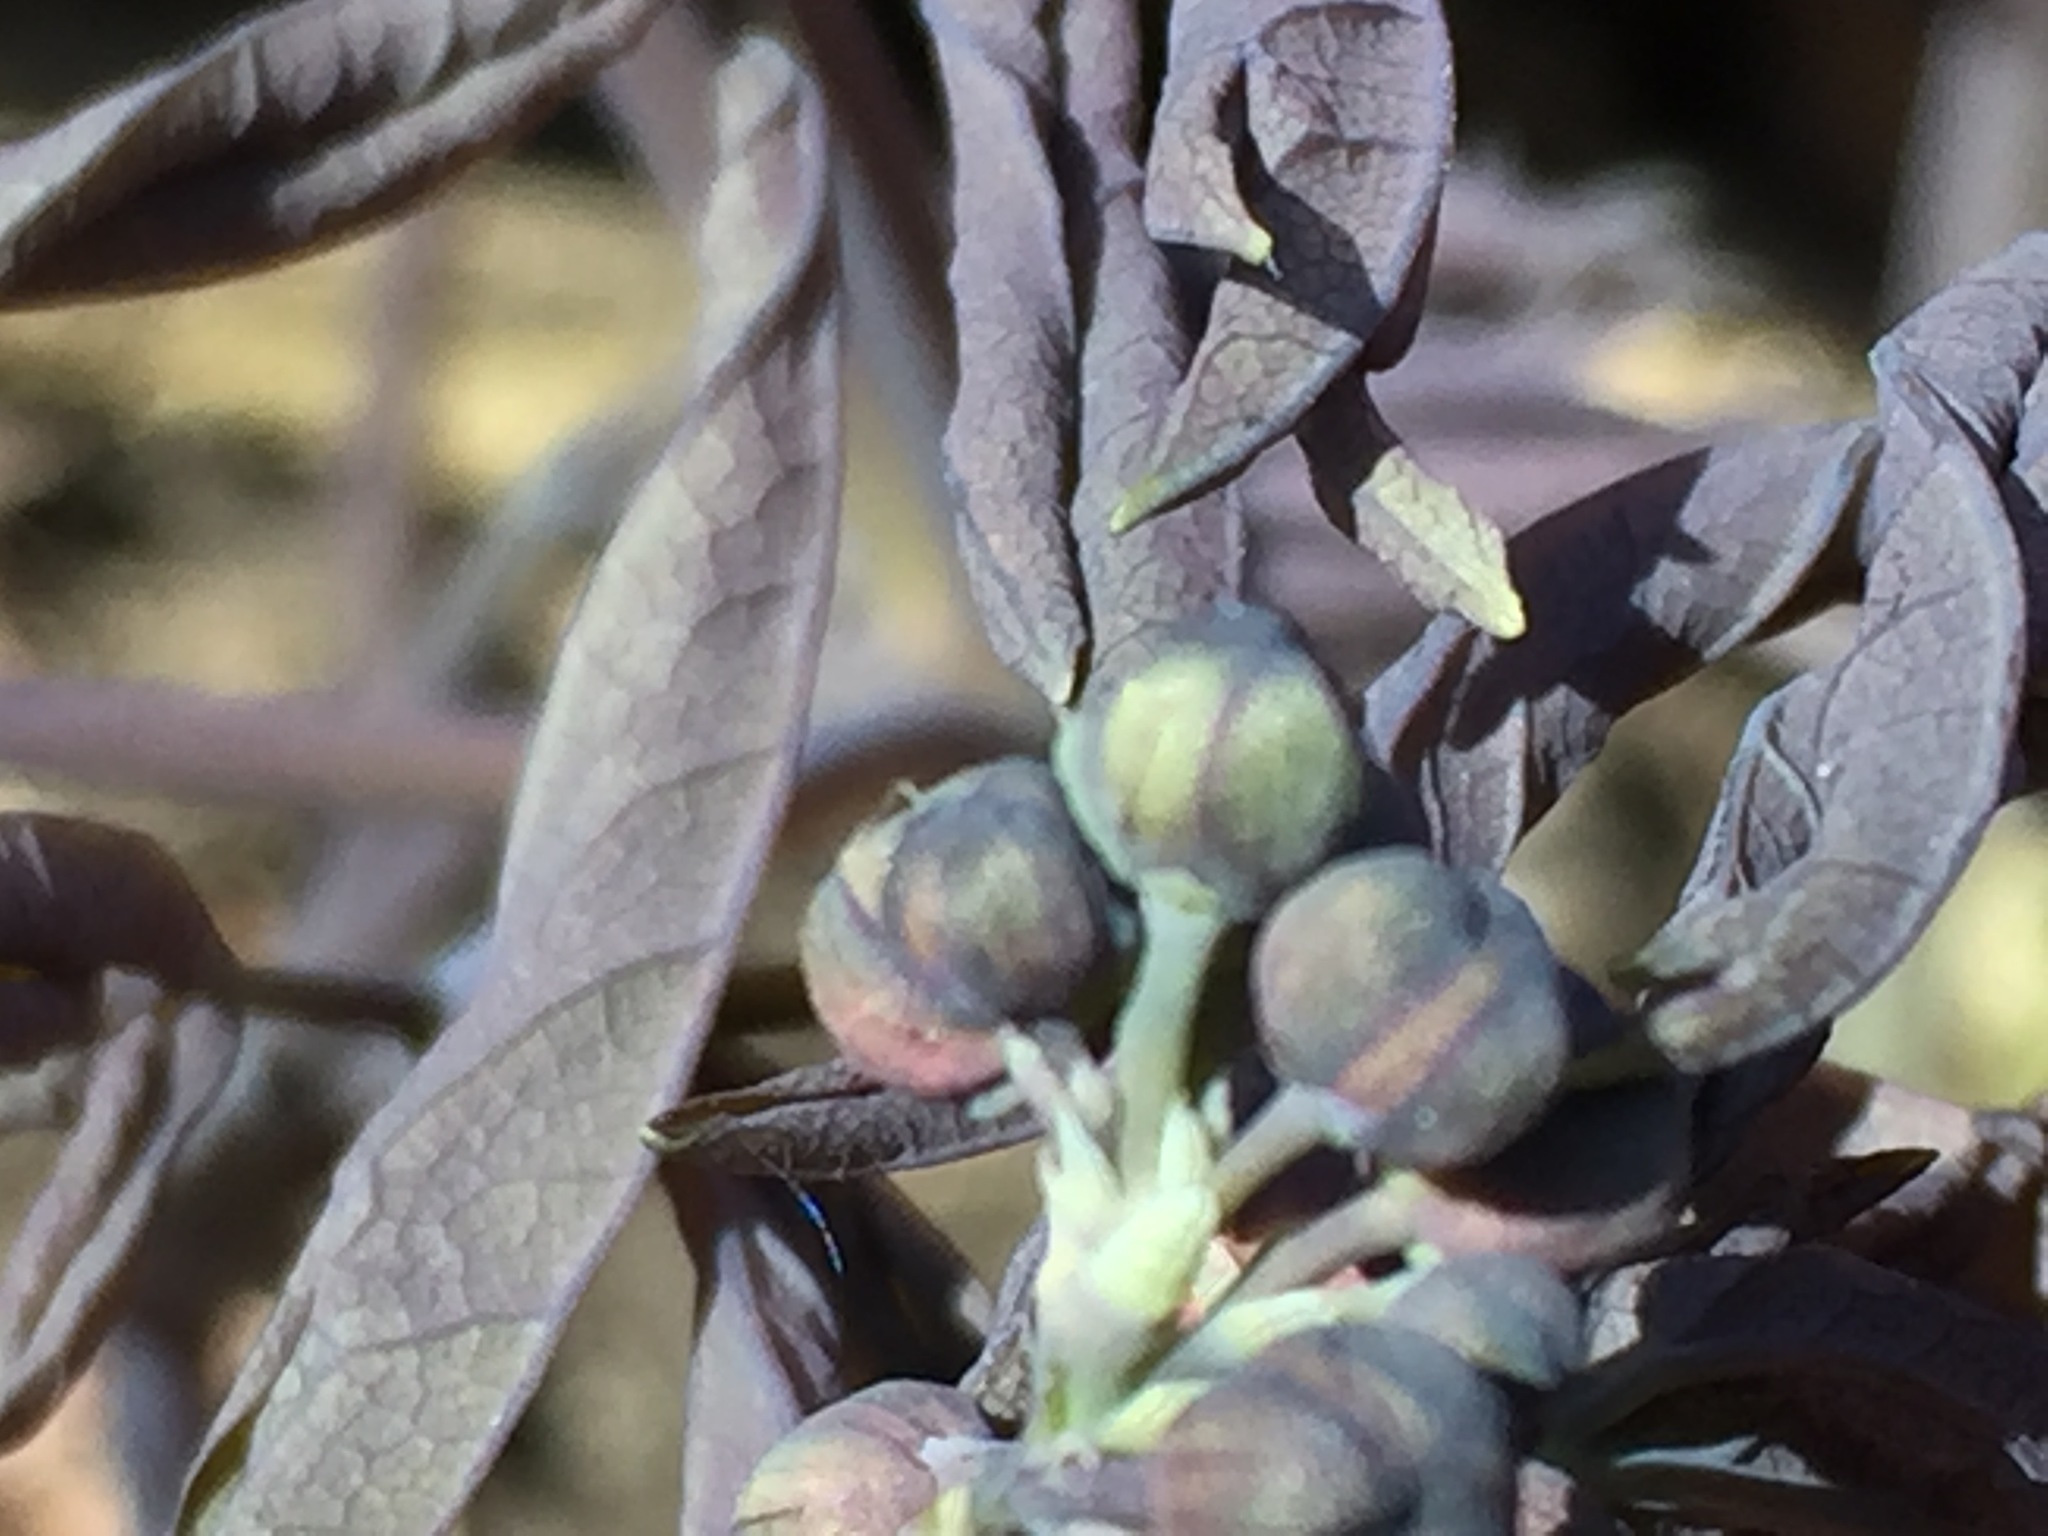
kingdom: Plantae
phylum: Tracheophyta
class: Magnoliopsida
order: Ranunculales
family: Berberidaceae
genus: Caulophyllum
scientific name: Caulophyllum giganteum
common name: Blue cohosh
